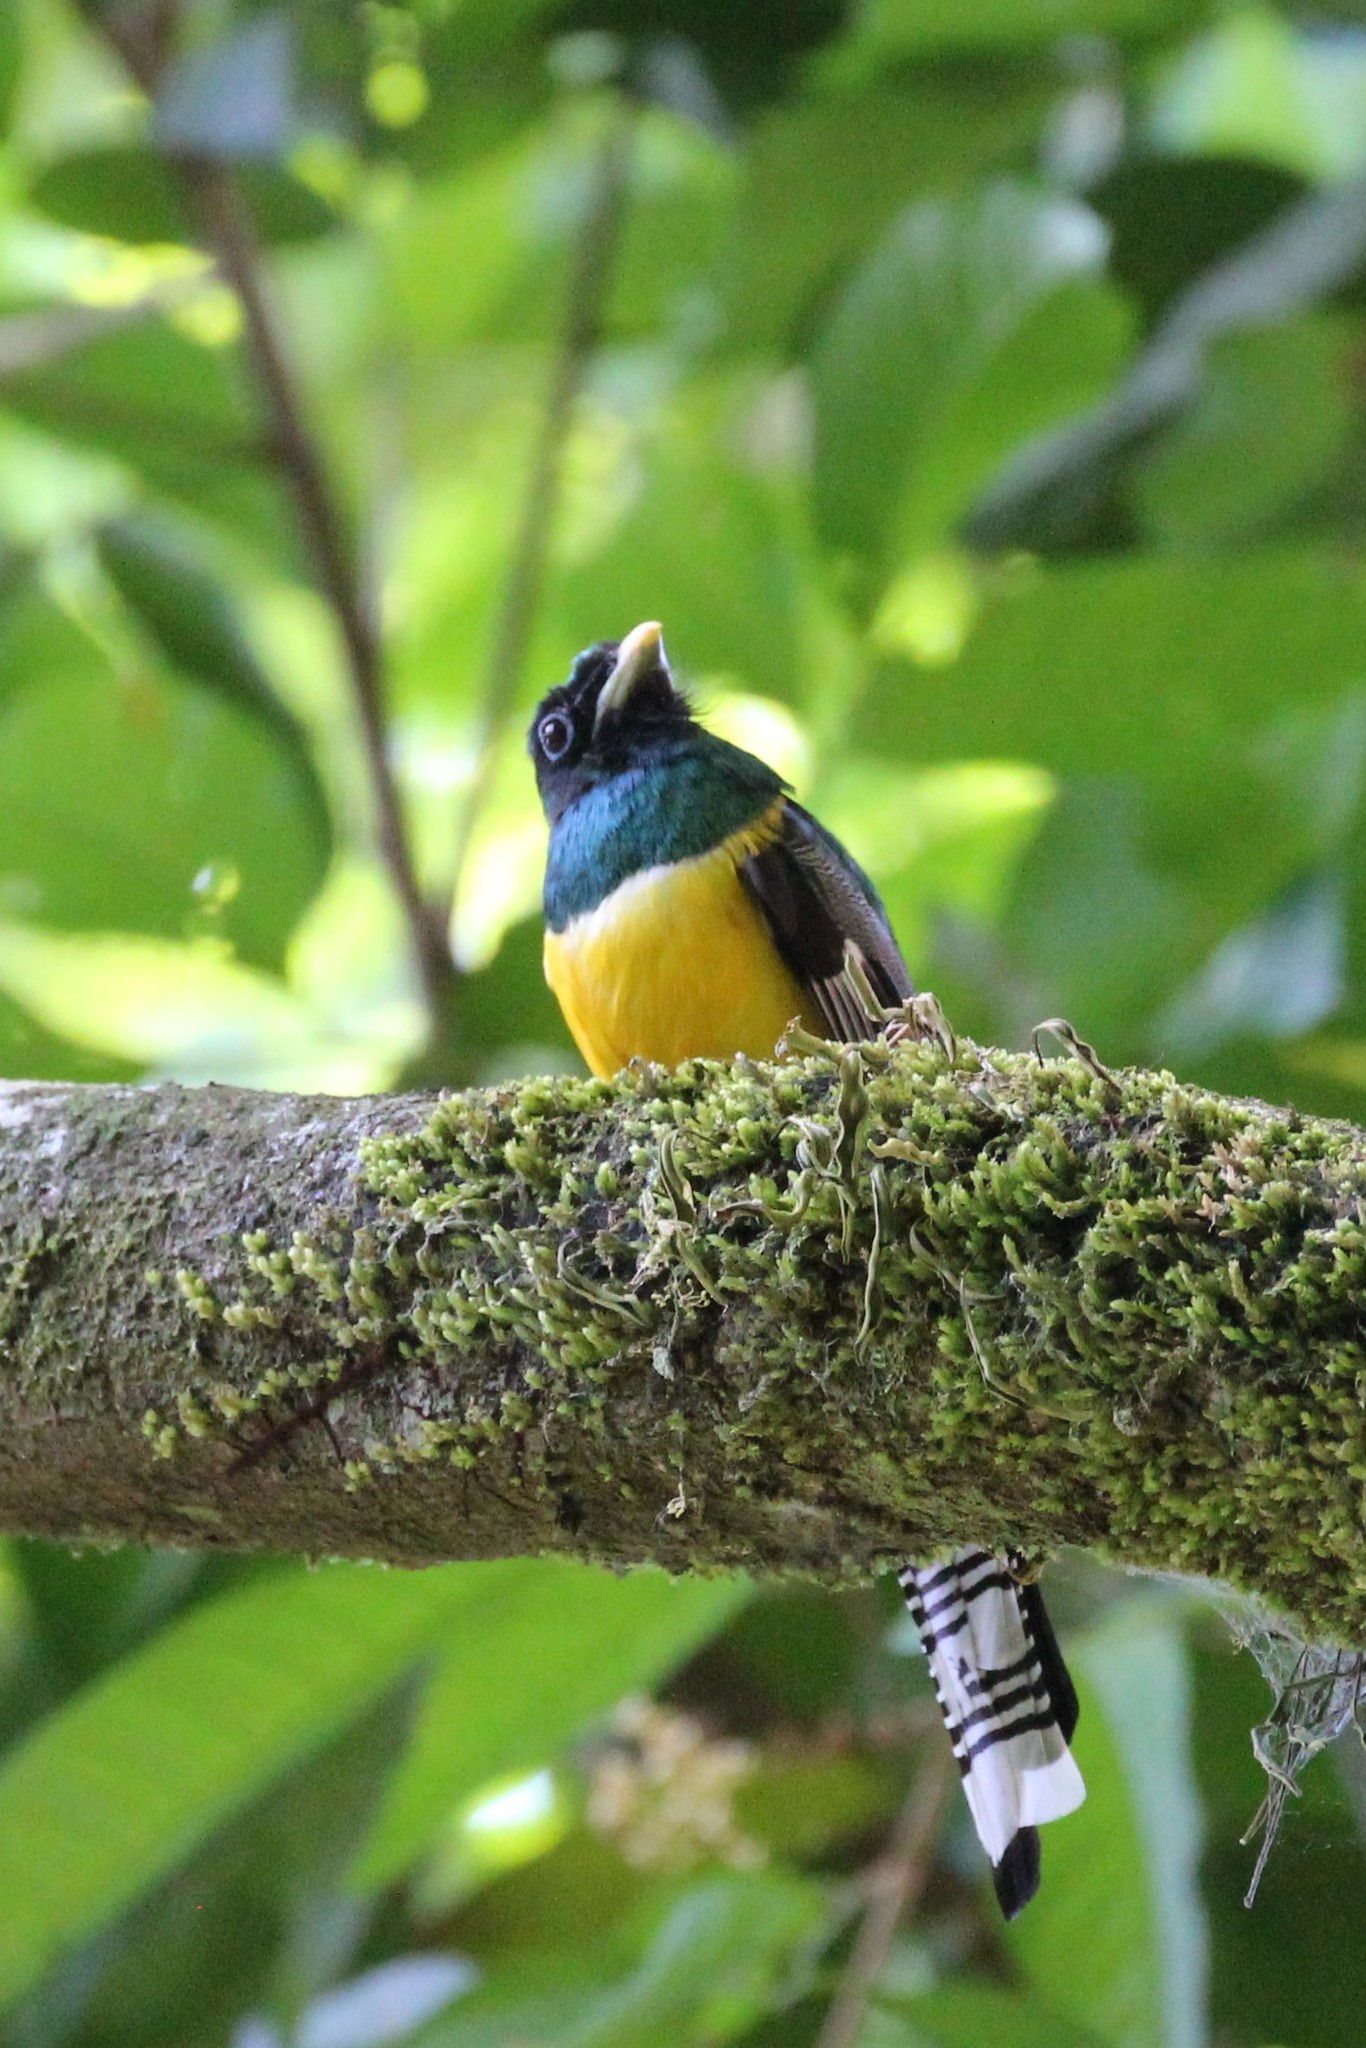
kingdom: Animalia
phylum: Chordata
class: Aves
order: Trogoniformes
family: Trogonidae
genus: Trogon
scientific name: Trogon rufus
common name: Black-throated trogon
